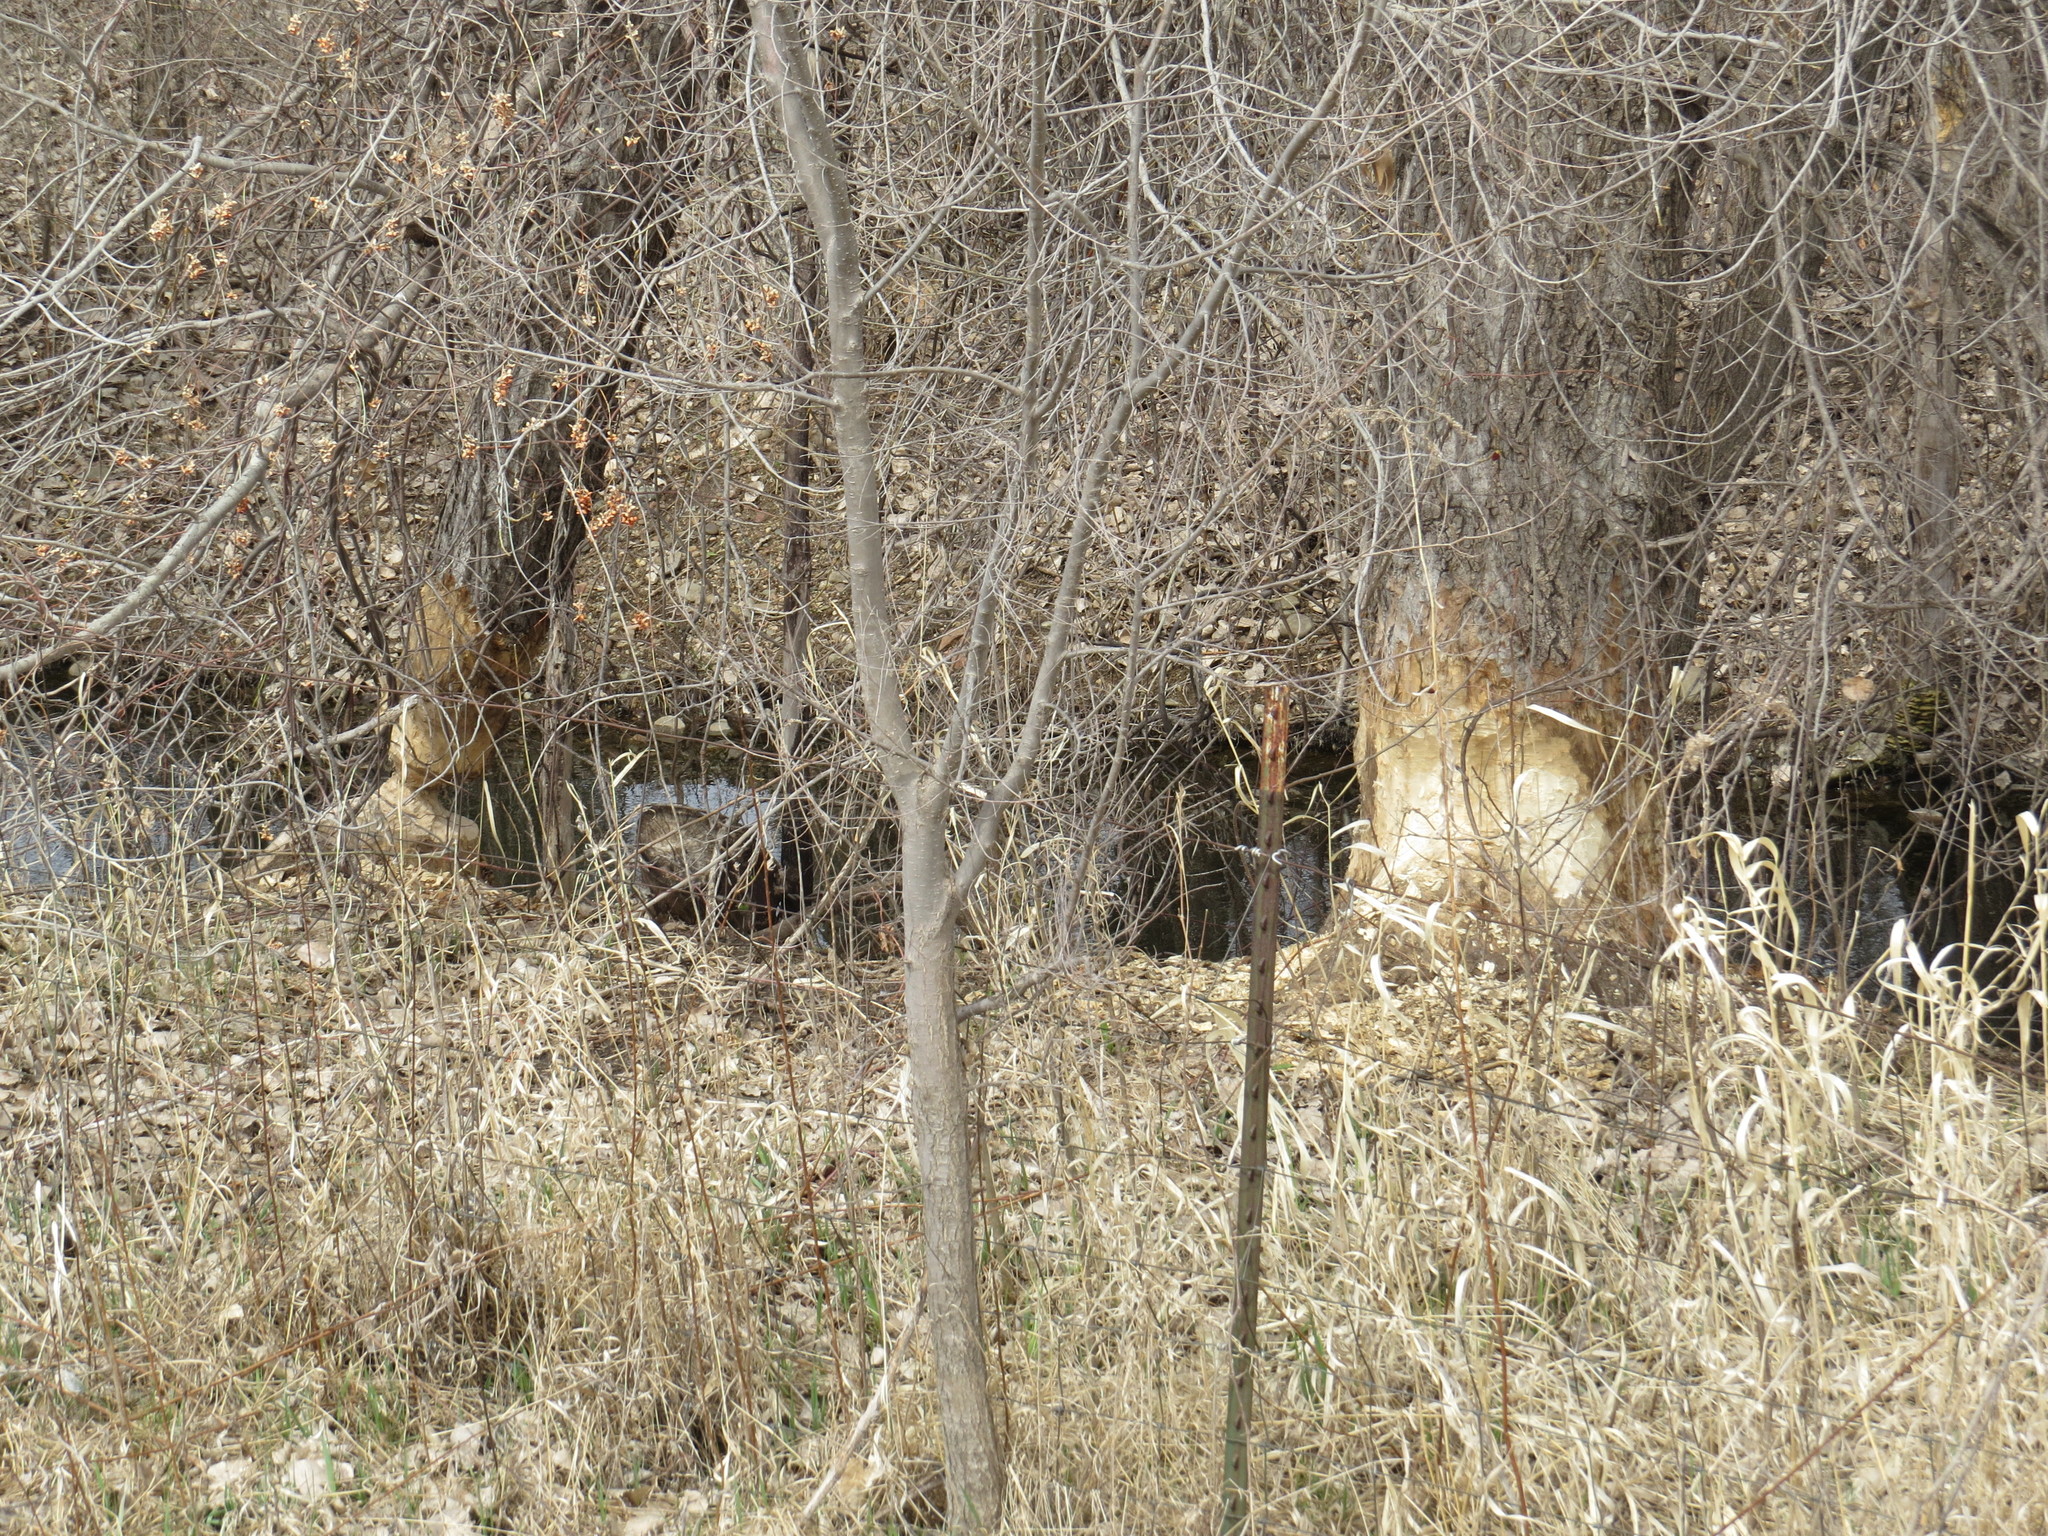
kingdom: Animalia
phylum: Chordata
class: Mammalia
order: Rodentia
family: Castoridae
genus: Castor
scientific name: Castor canadensis
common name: American beaver
